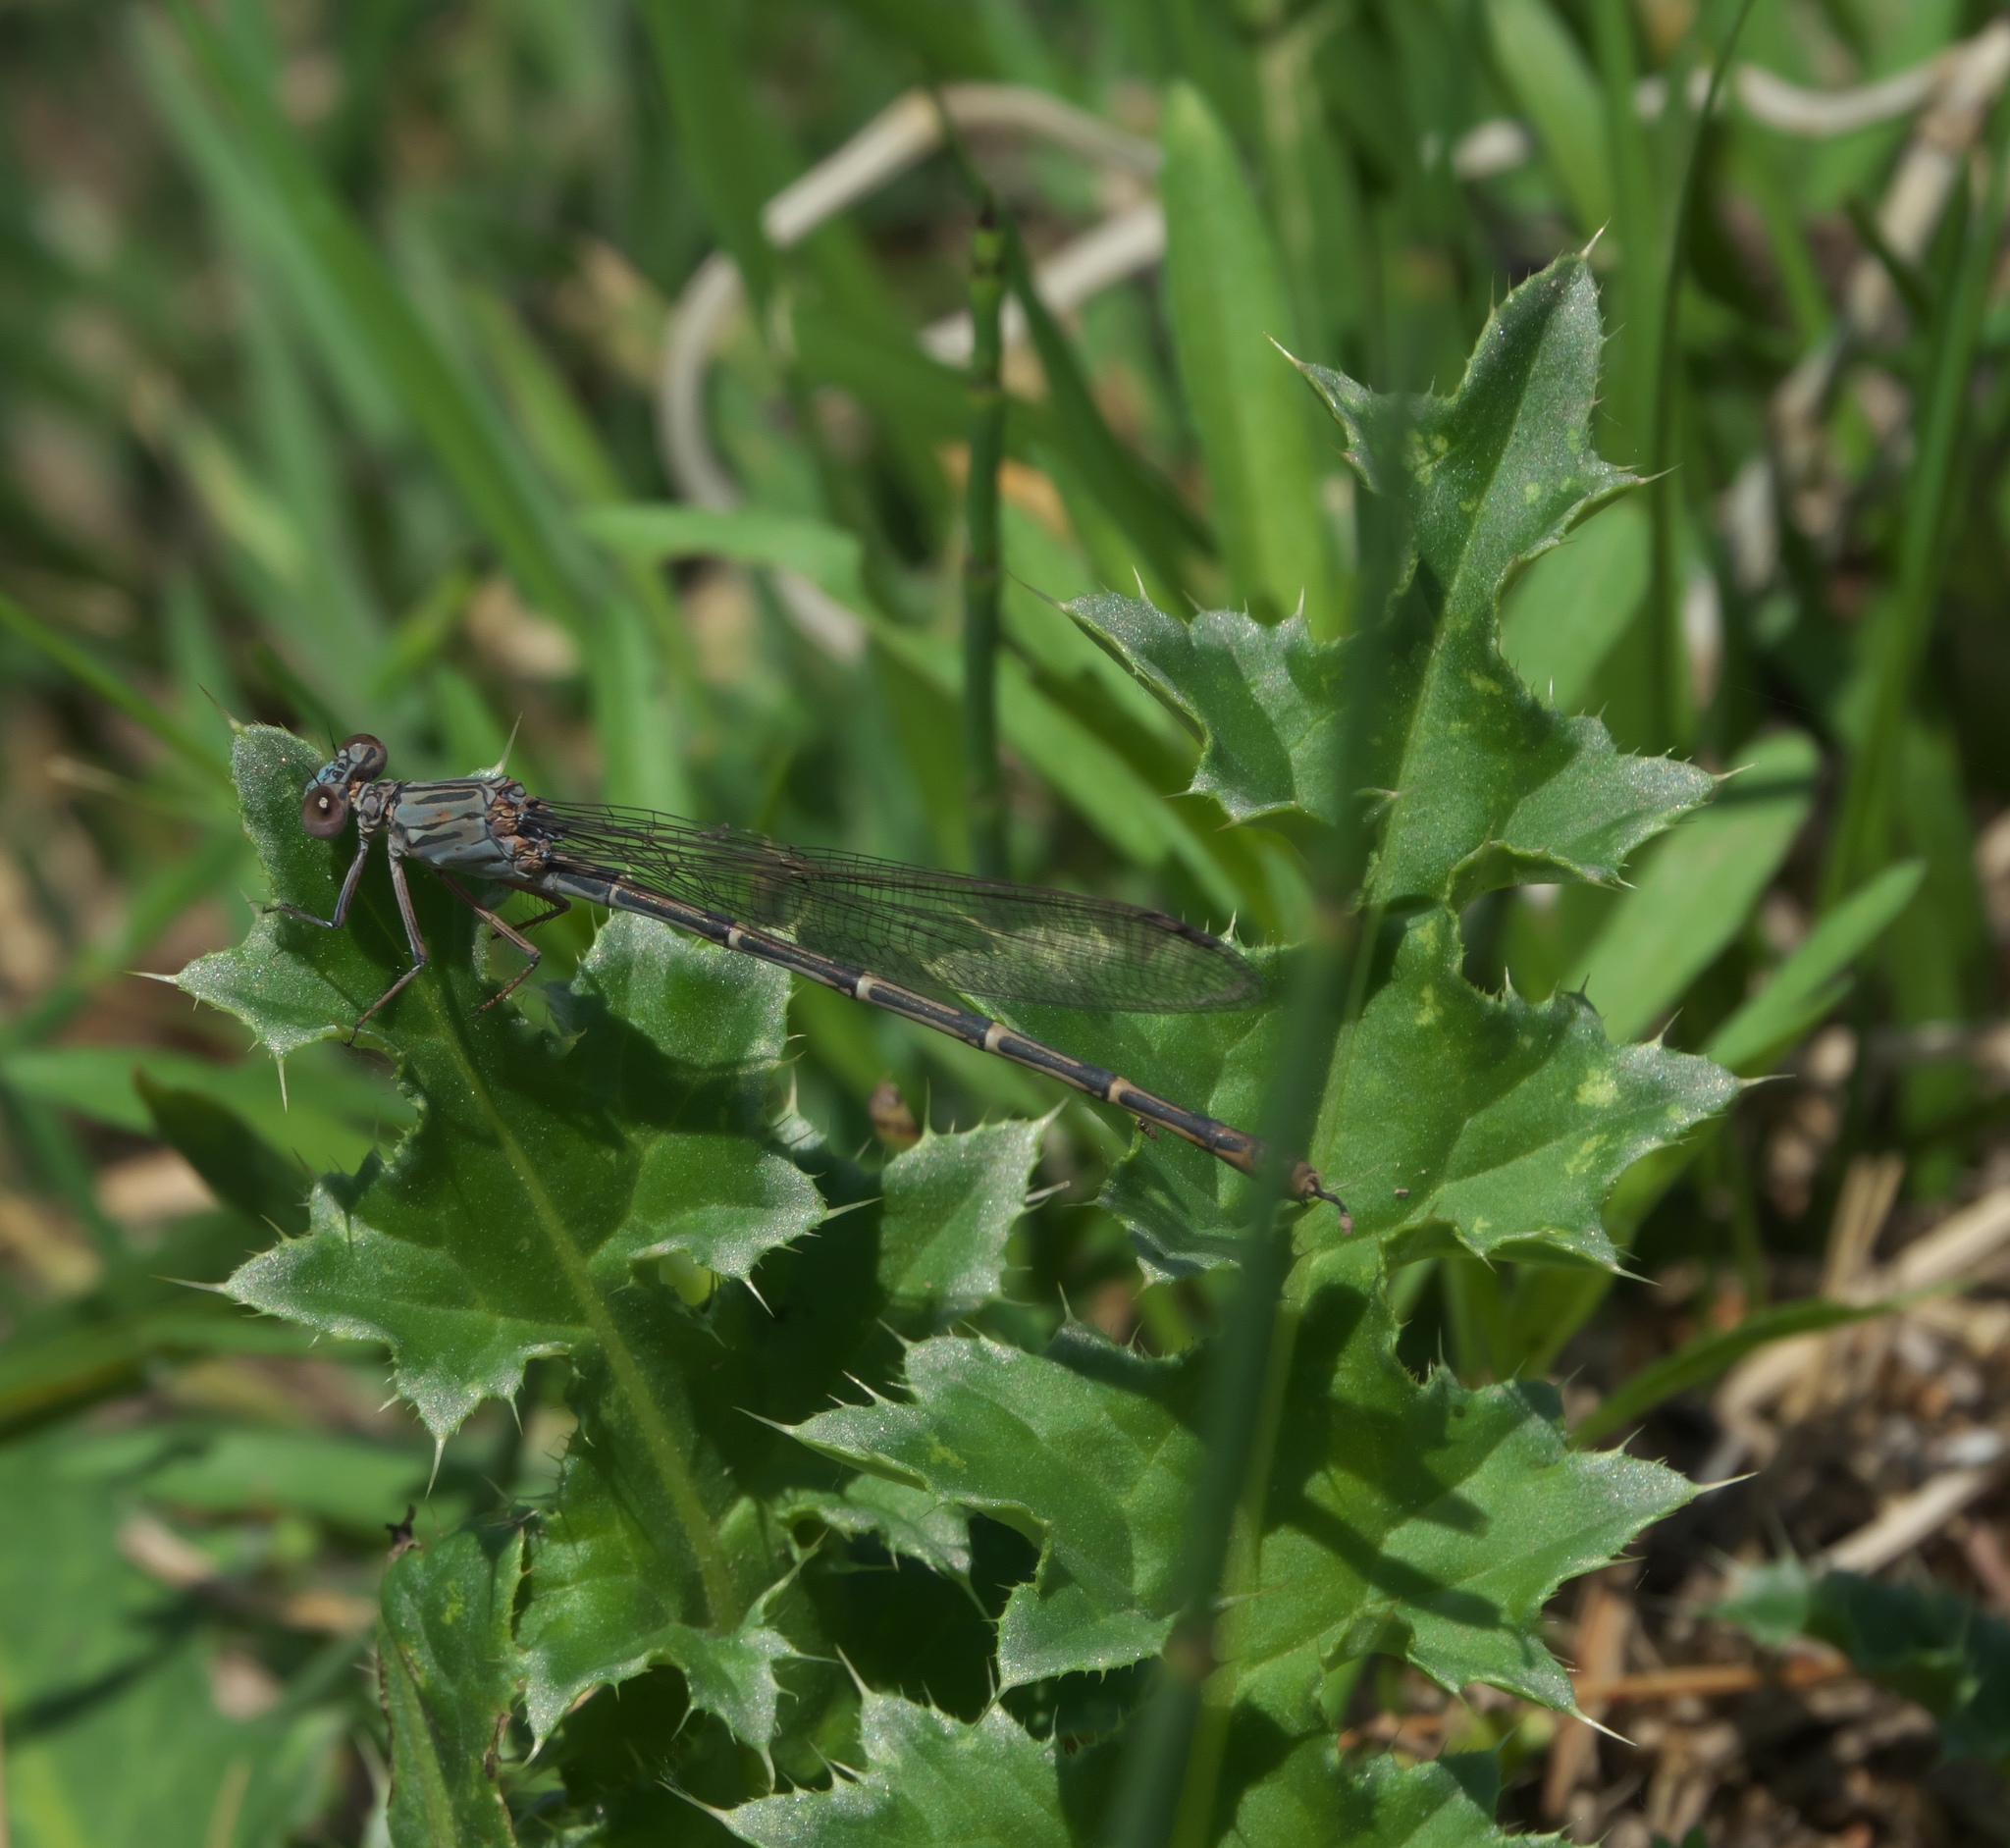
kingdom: Plantae
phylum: Tracheophyta
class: Magnoliopsida
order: Asterales
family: Asteraceae
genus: Carduus
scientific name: Carduus nutans
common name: Musk thistle
